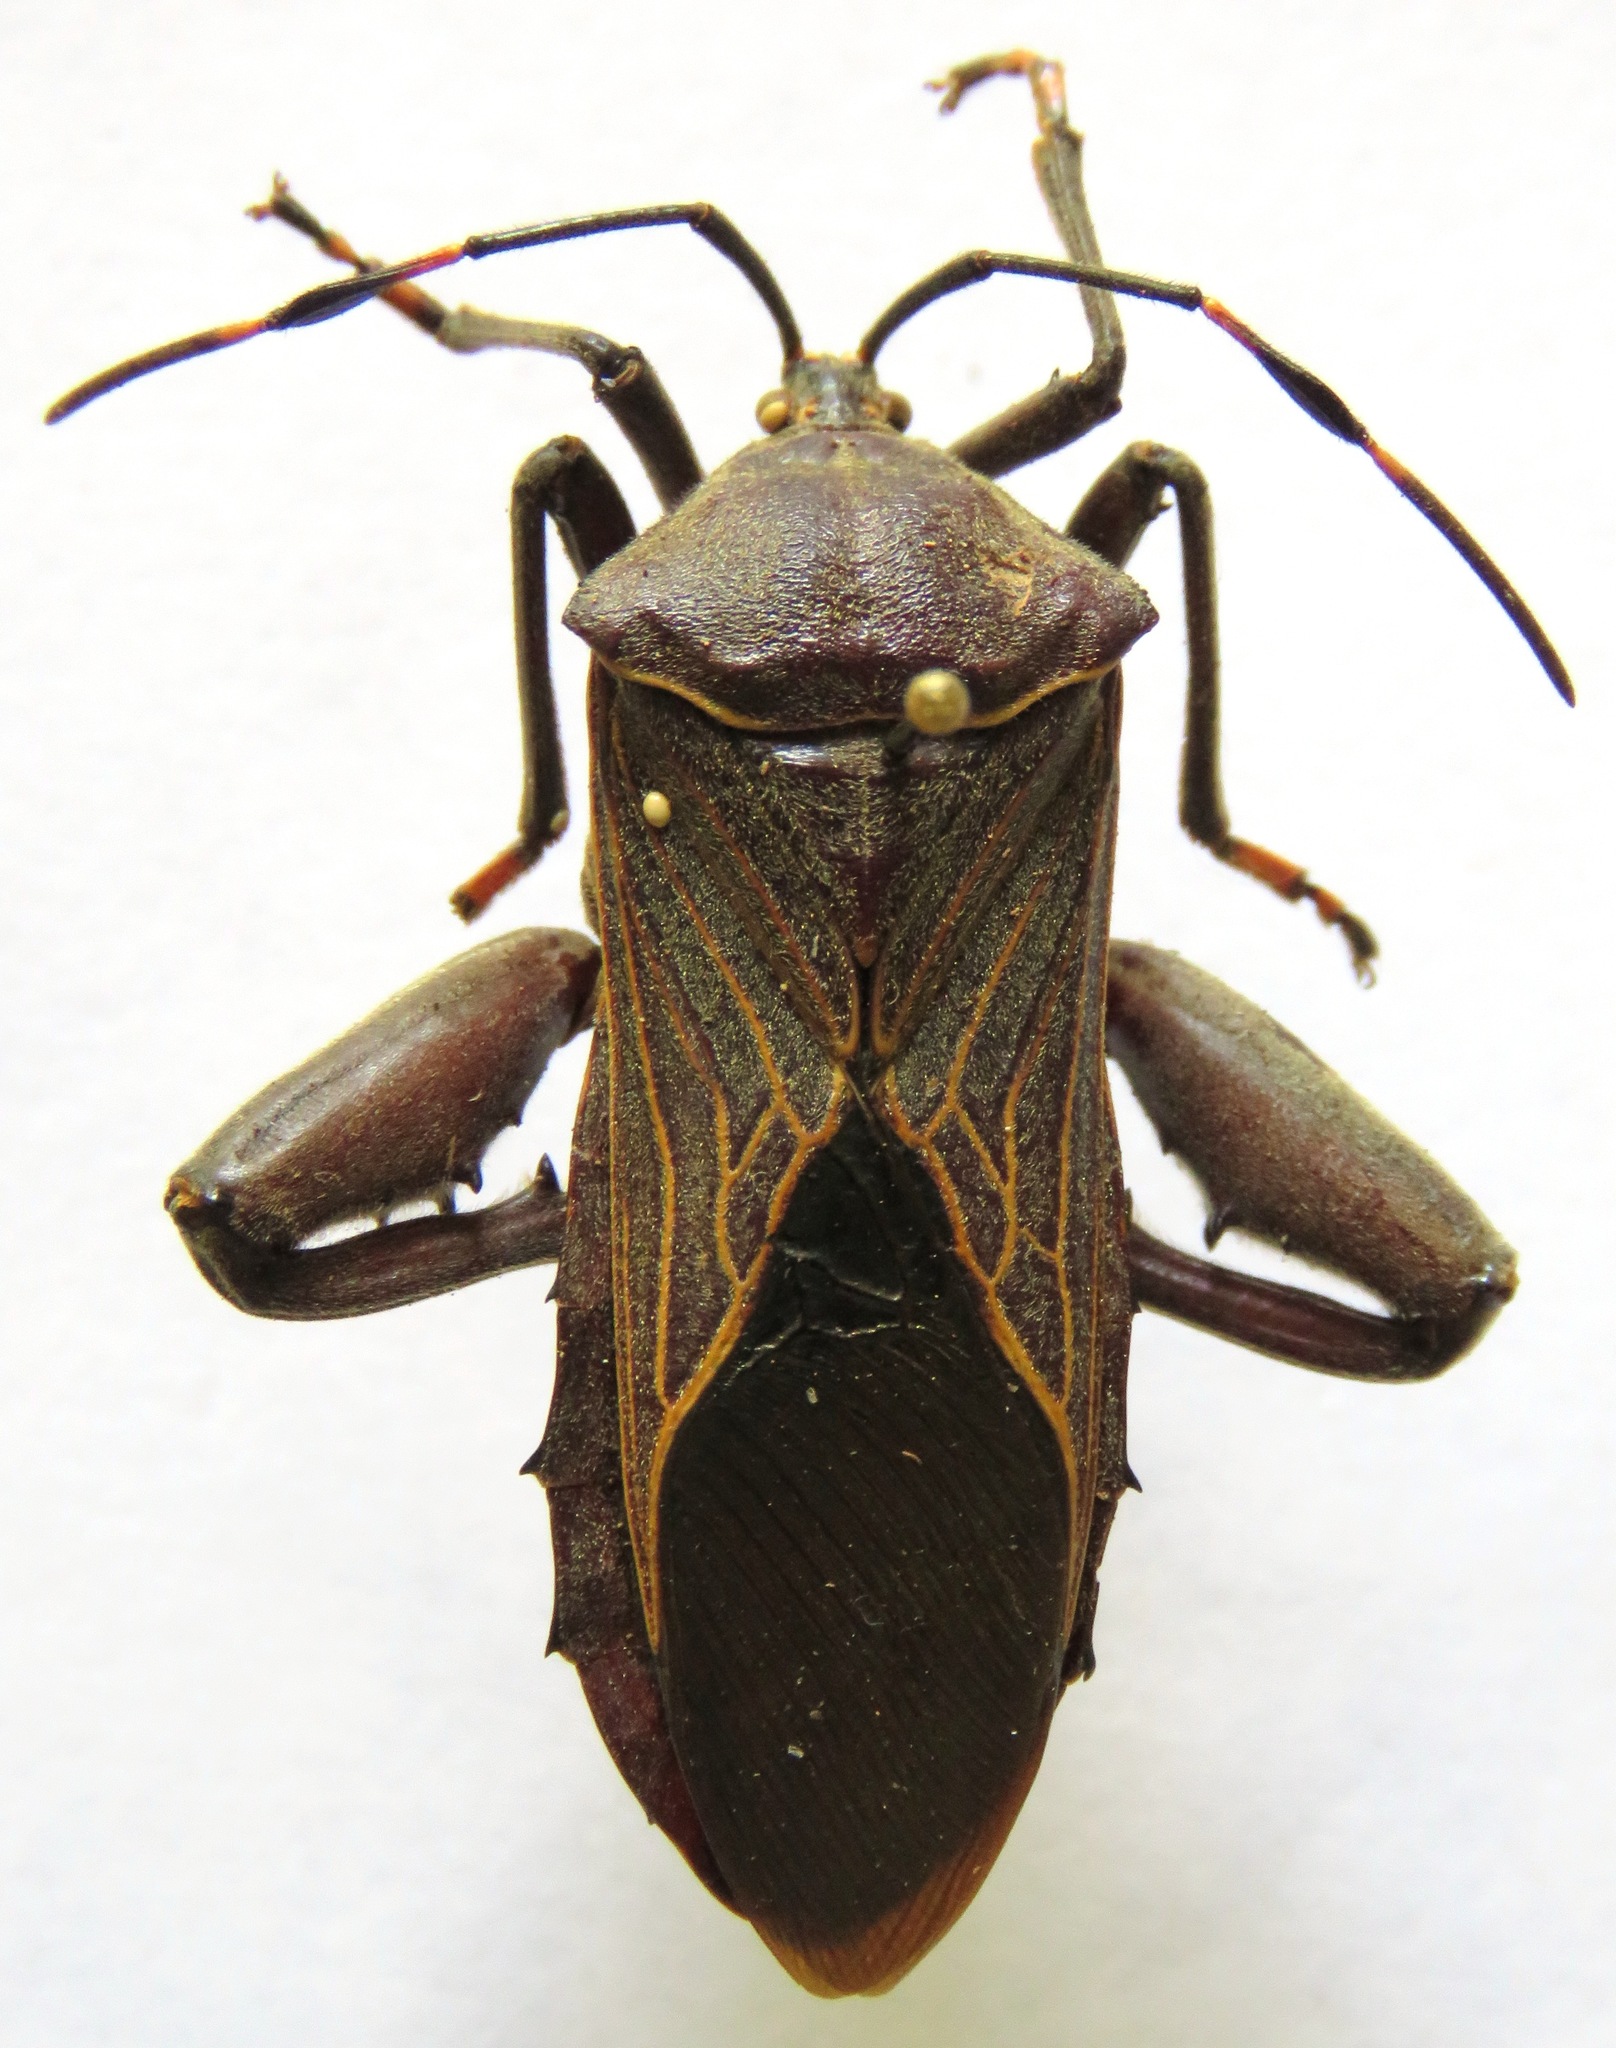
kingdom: Animalia
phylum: Arthropoda
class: Insecta
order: Hemiptera
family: Coreidae
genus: Pachylis
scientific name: Pachylis nervosus
